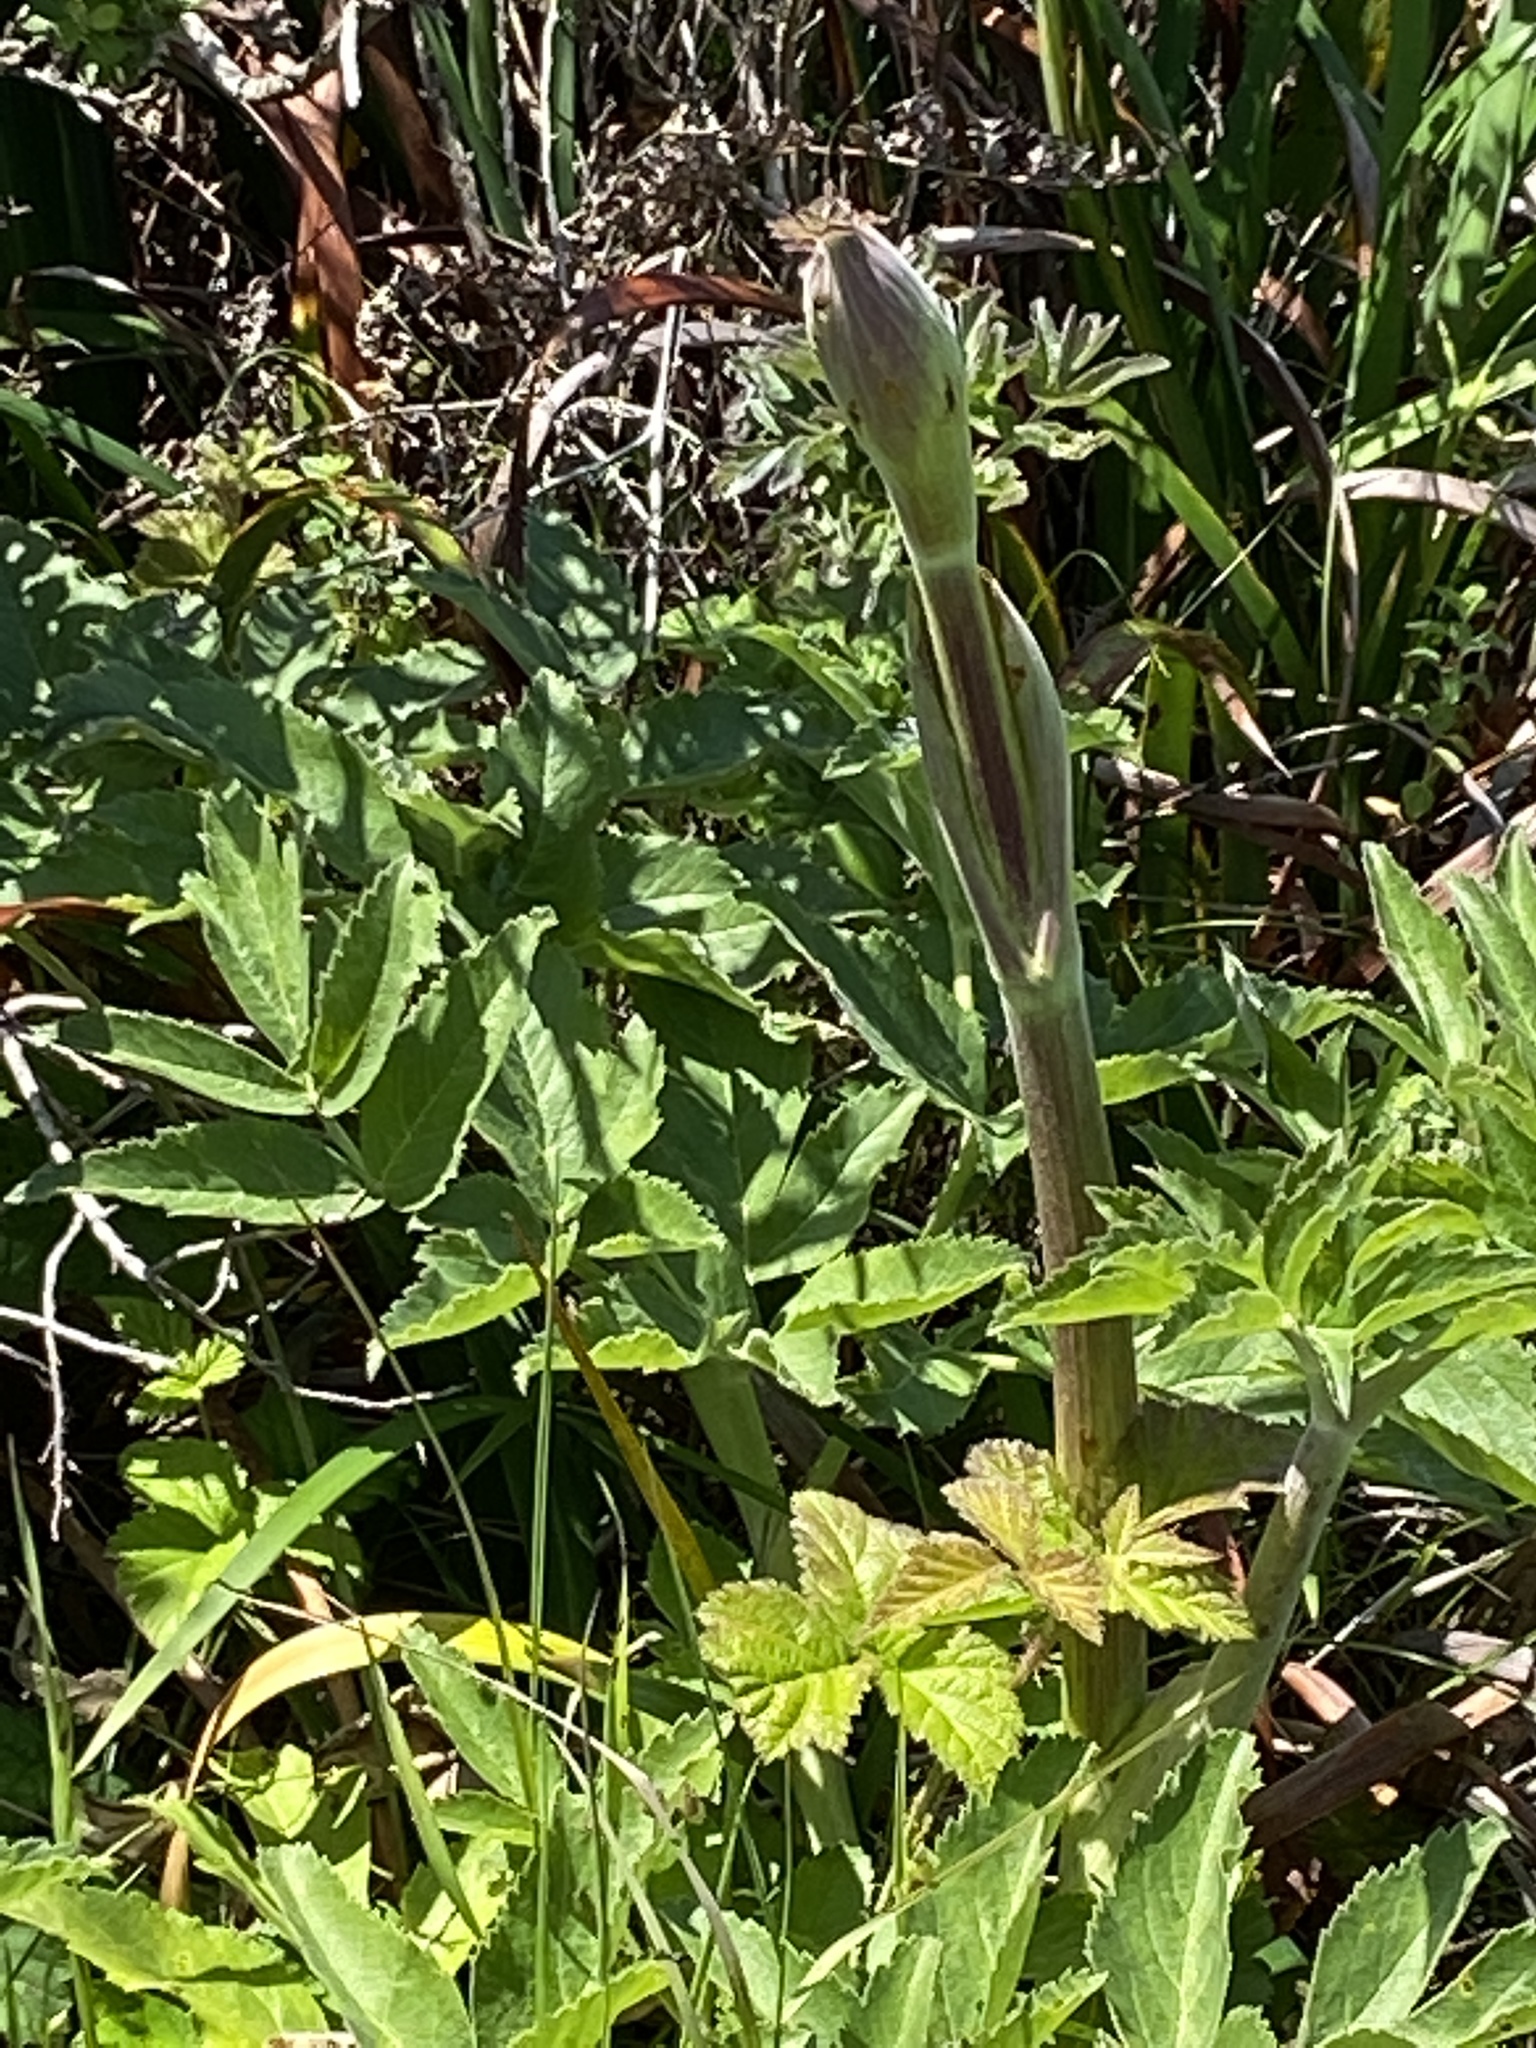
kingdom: Plantae
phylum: Tracheophyta
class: Magnoliopsida
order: Apiales
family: Apiaceae
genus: Angelica
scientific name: Angelica hendersonii
